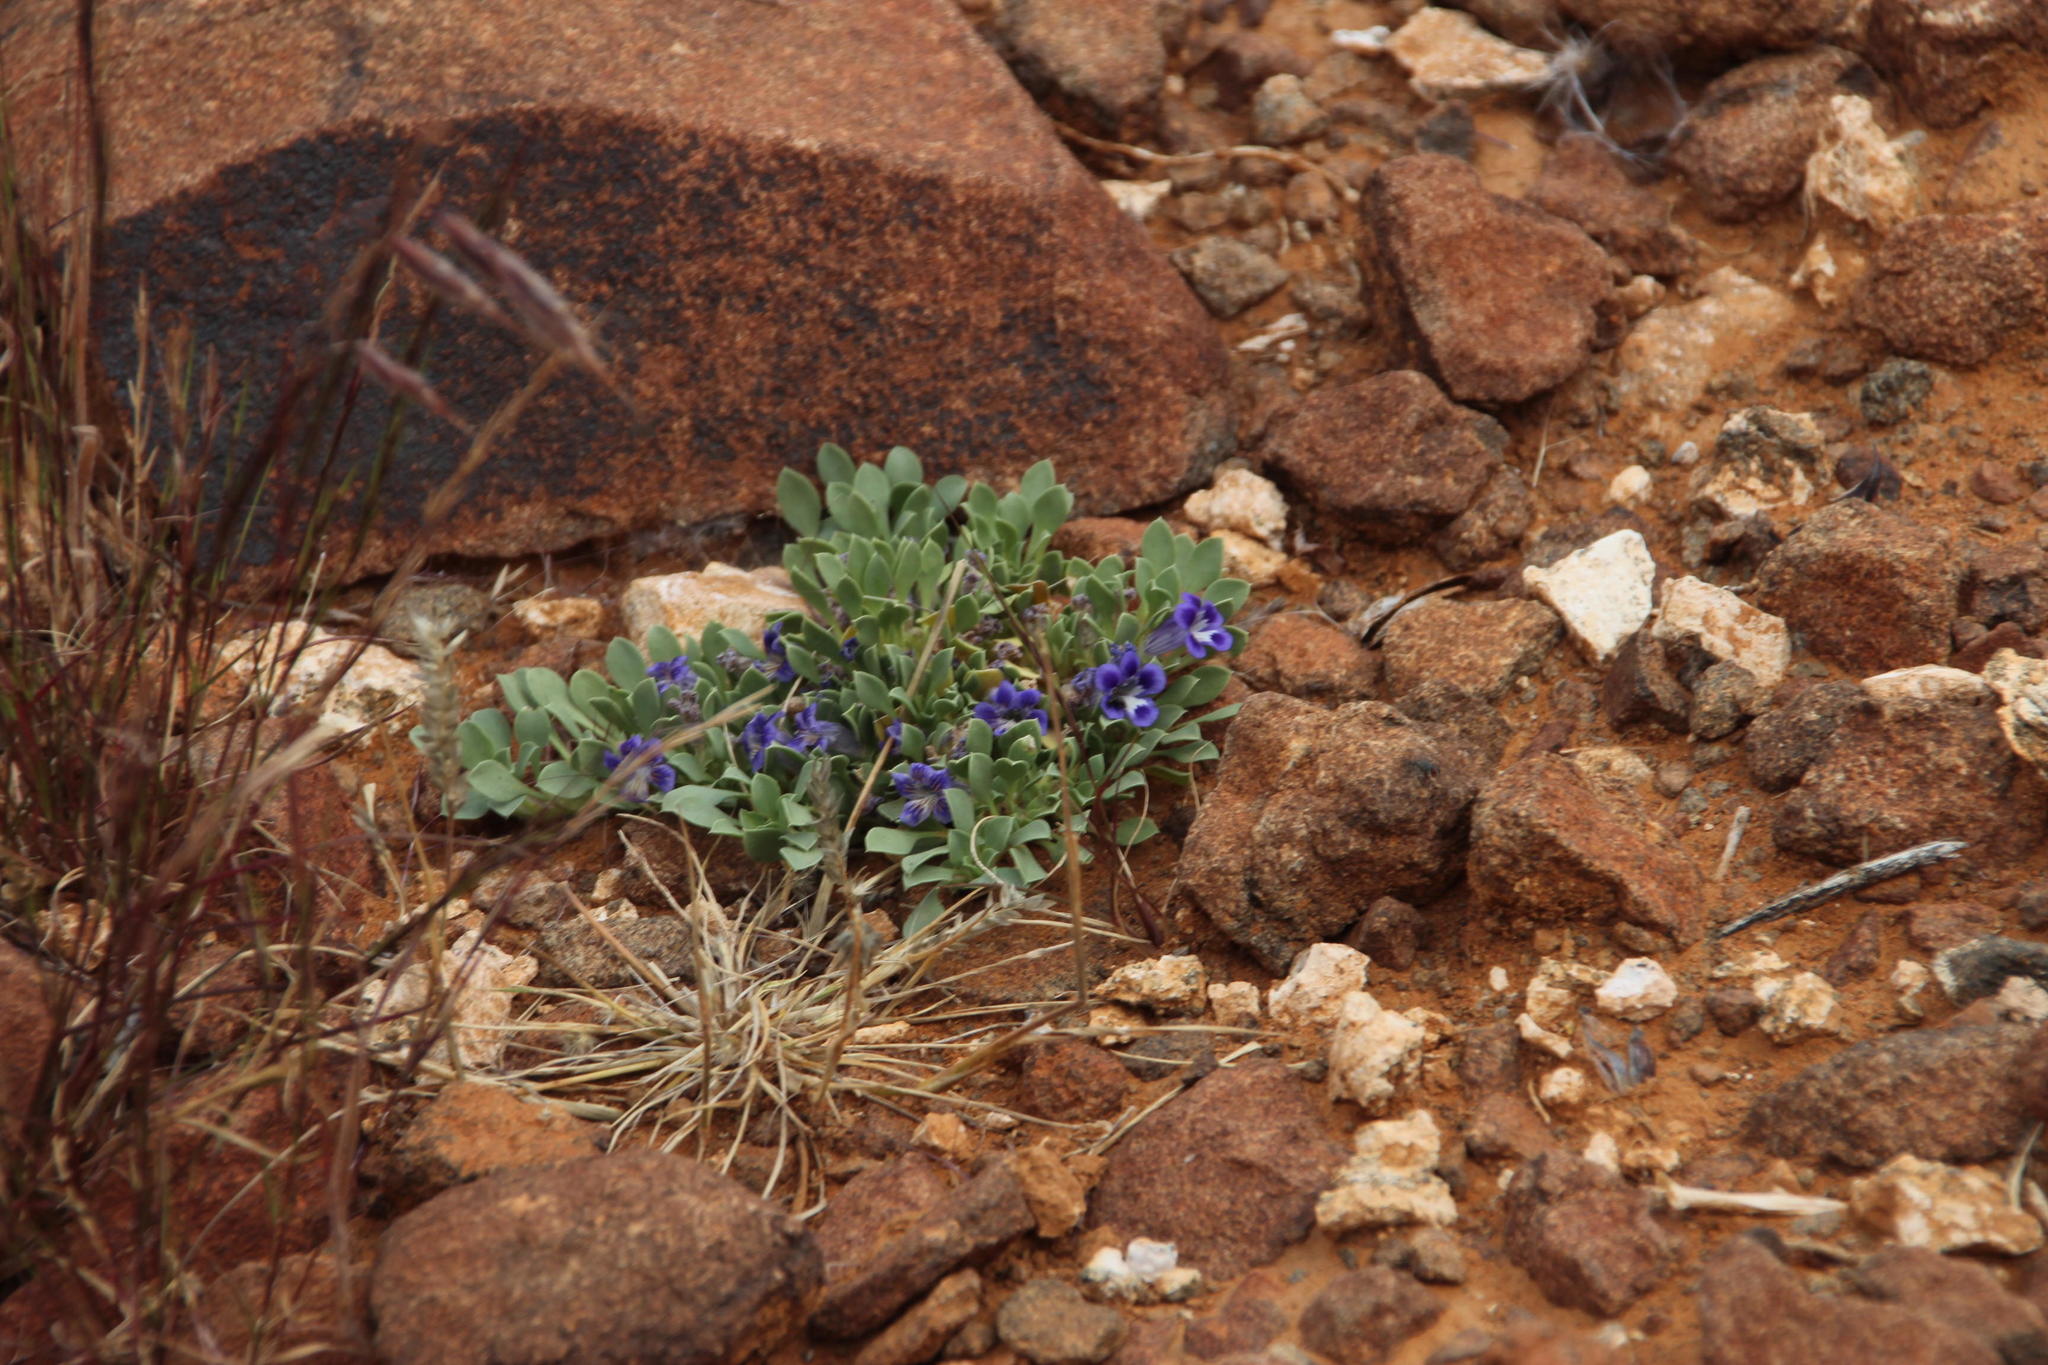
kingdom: Plantae
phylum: Tracheophyta
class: Magnoliopsida
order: Lamiales
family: Scrophulariaceae
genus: Aptosimum
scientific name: Aptosimum indivisum
